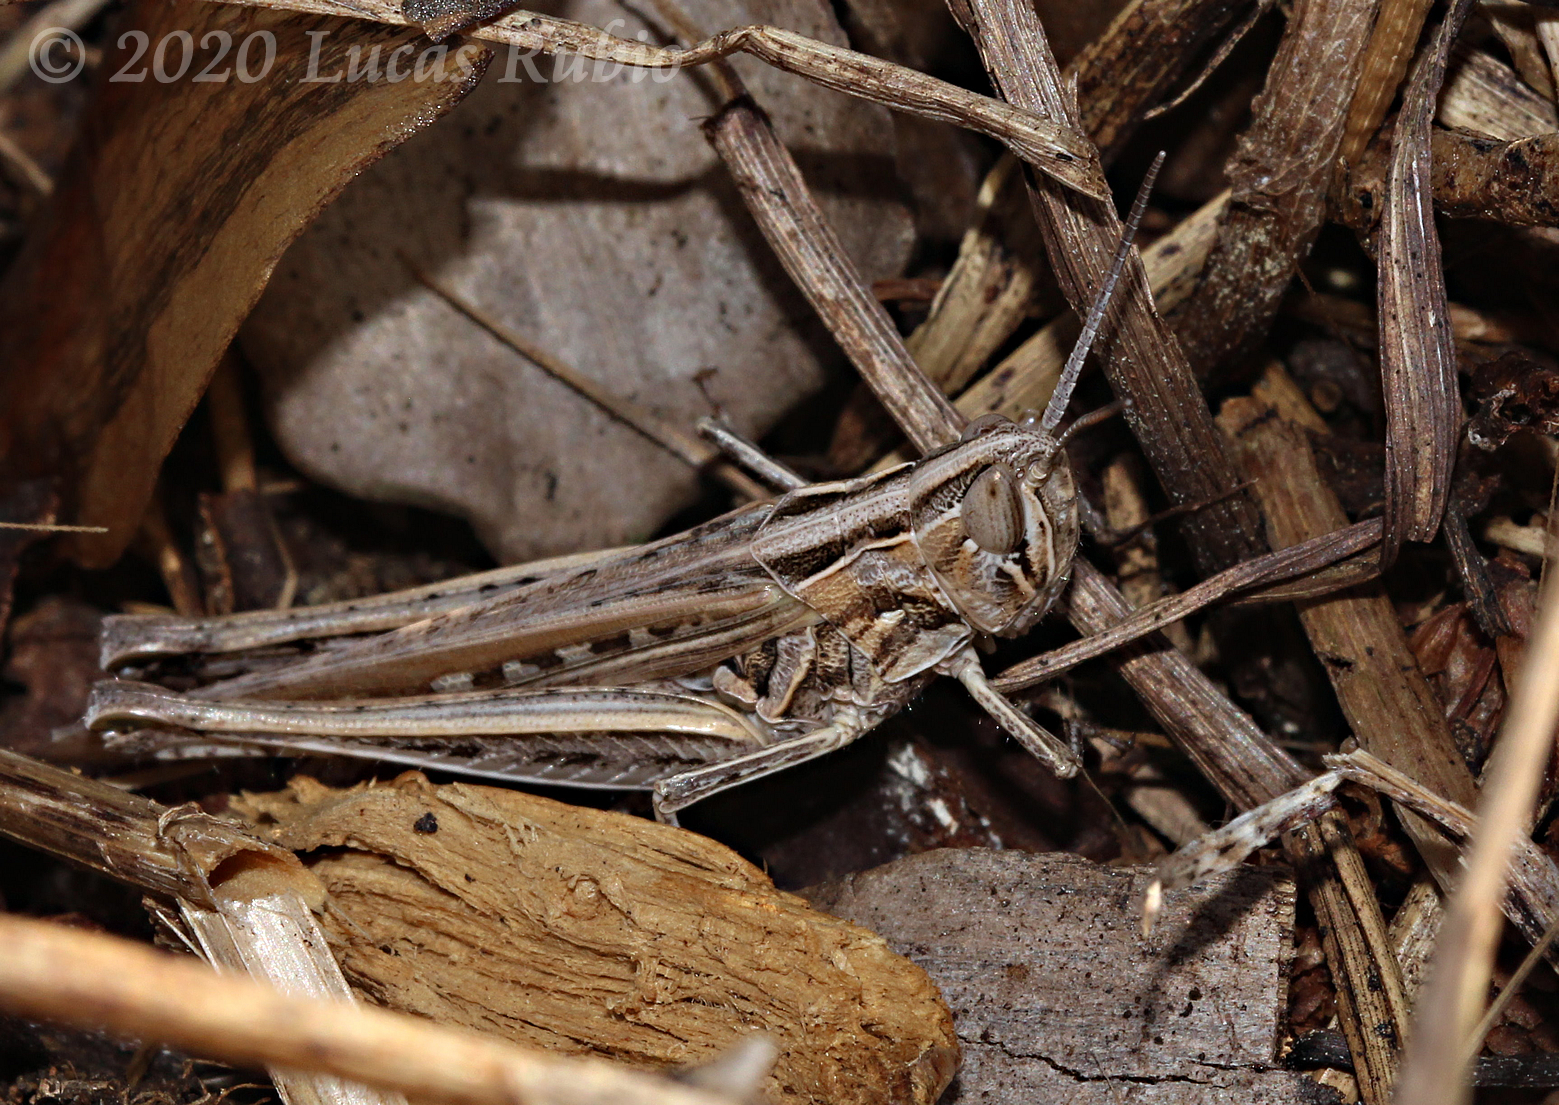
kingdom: Animalia
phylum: Arthropoda
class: Insecta
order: Orthoptera
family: Acrididae
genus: Scyllinula
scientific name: Scyllinula signatipennis
